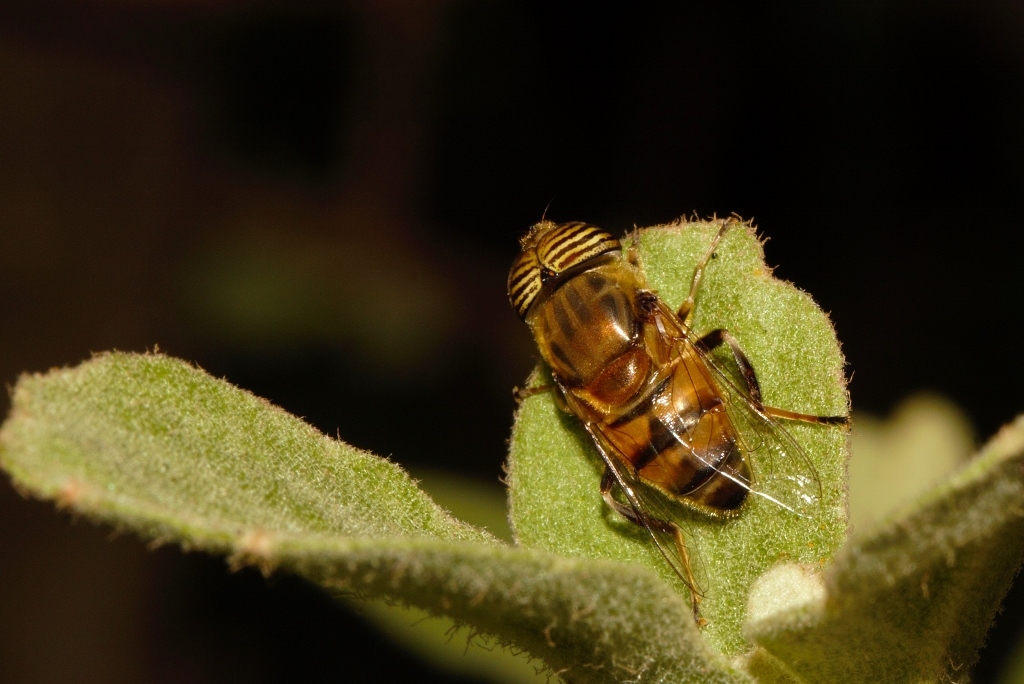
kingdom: Animalia
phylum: Arthropoda
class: Insecta
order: Diptera
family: Syrphidae
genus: Eristalinus
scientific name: Eristalinus taeniops
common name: Syrphid fly
